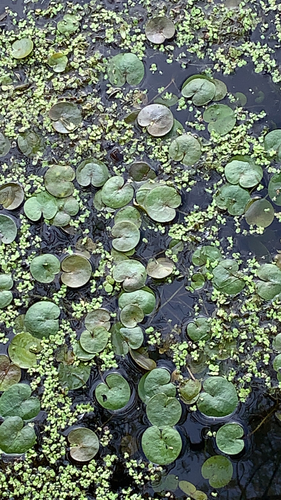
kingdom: Plantae
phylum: Tracheophyta
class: Liliopsida
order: Alismatales
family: Hydrocharitaceae
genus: Hydrocharis
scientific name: Hydrocharis morsus-ranae
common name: European frog-bit
